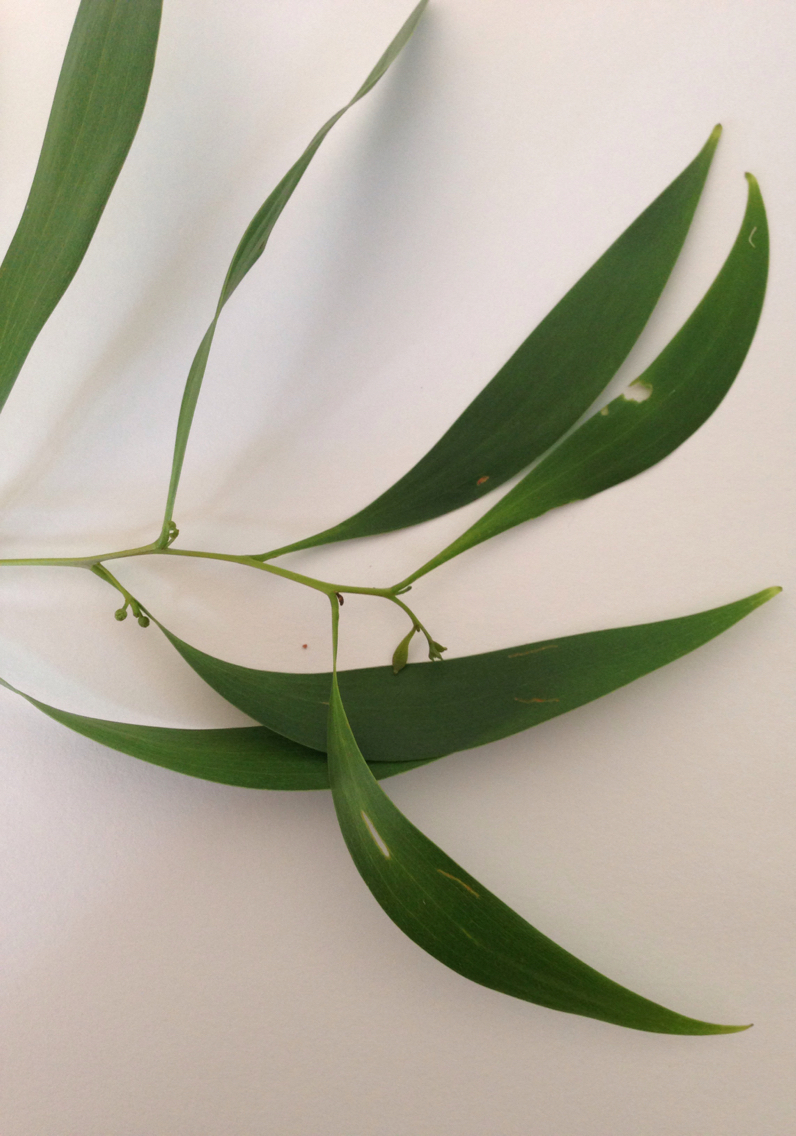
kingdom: Plantae
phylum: Tracheophyta
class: Magnoliopsida
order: Fabales
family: Fabaceae
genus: Acacia
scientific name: Acacia implexa
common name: Black wattle
